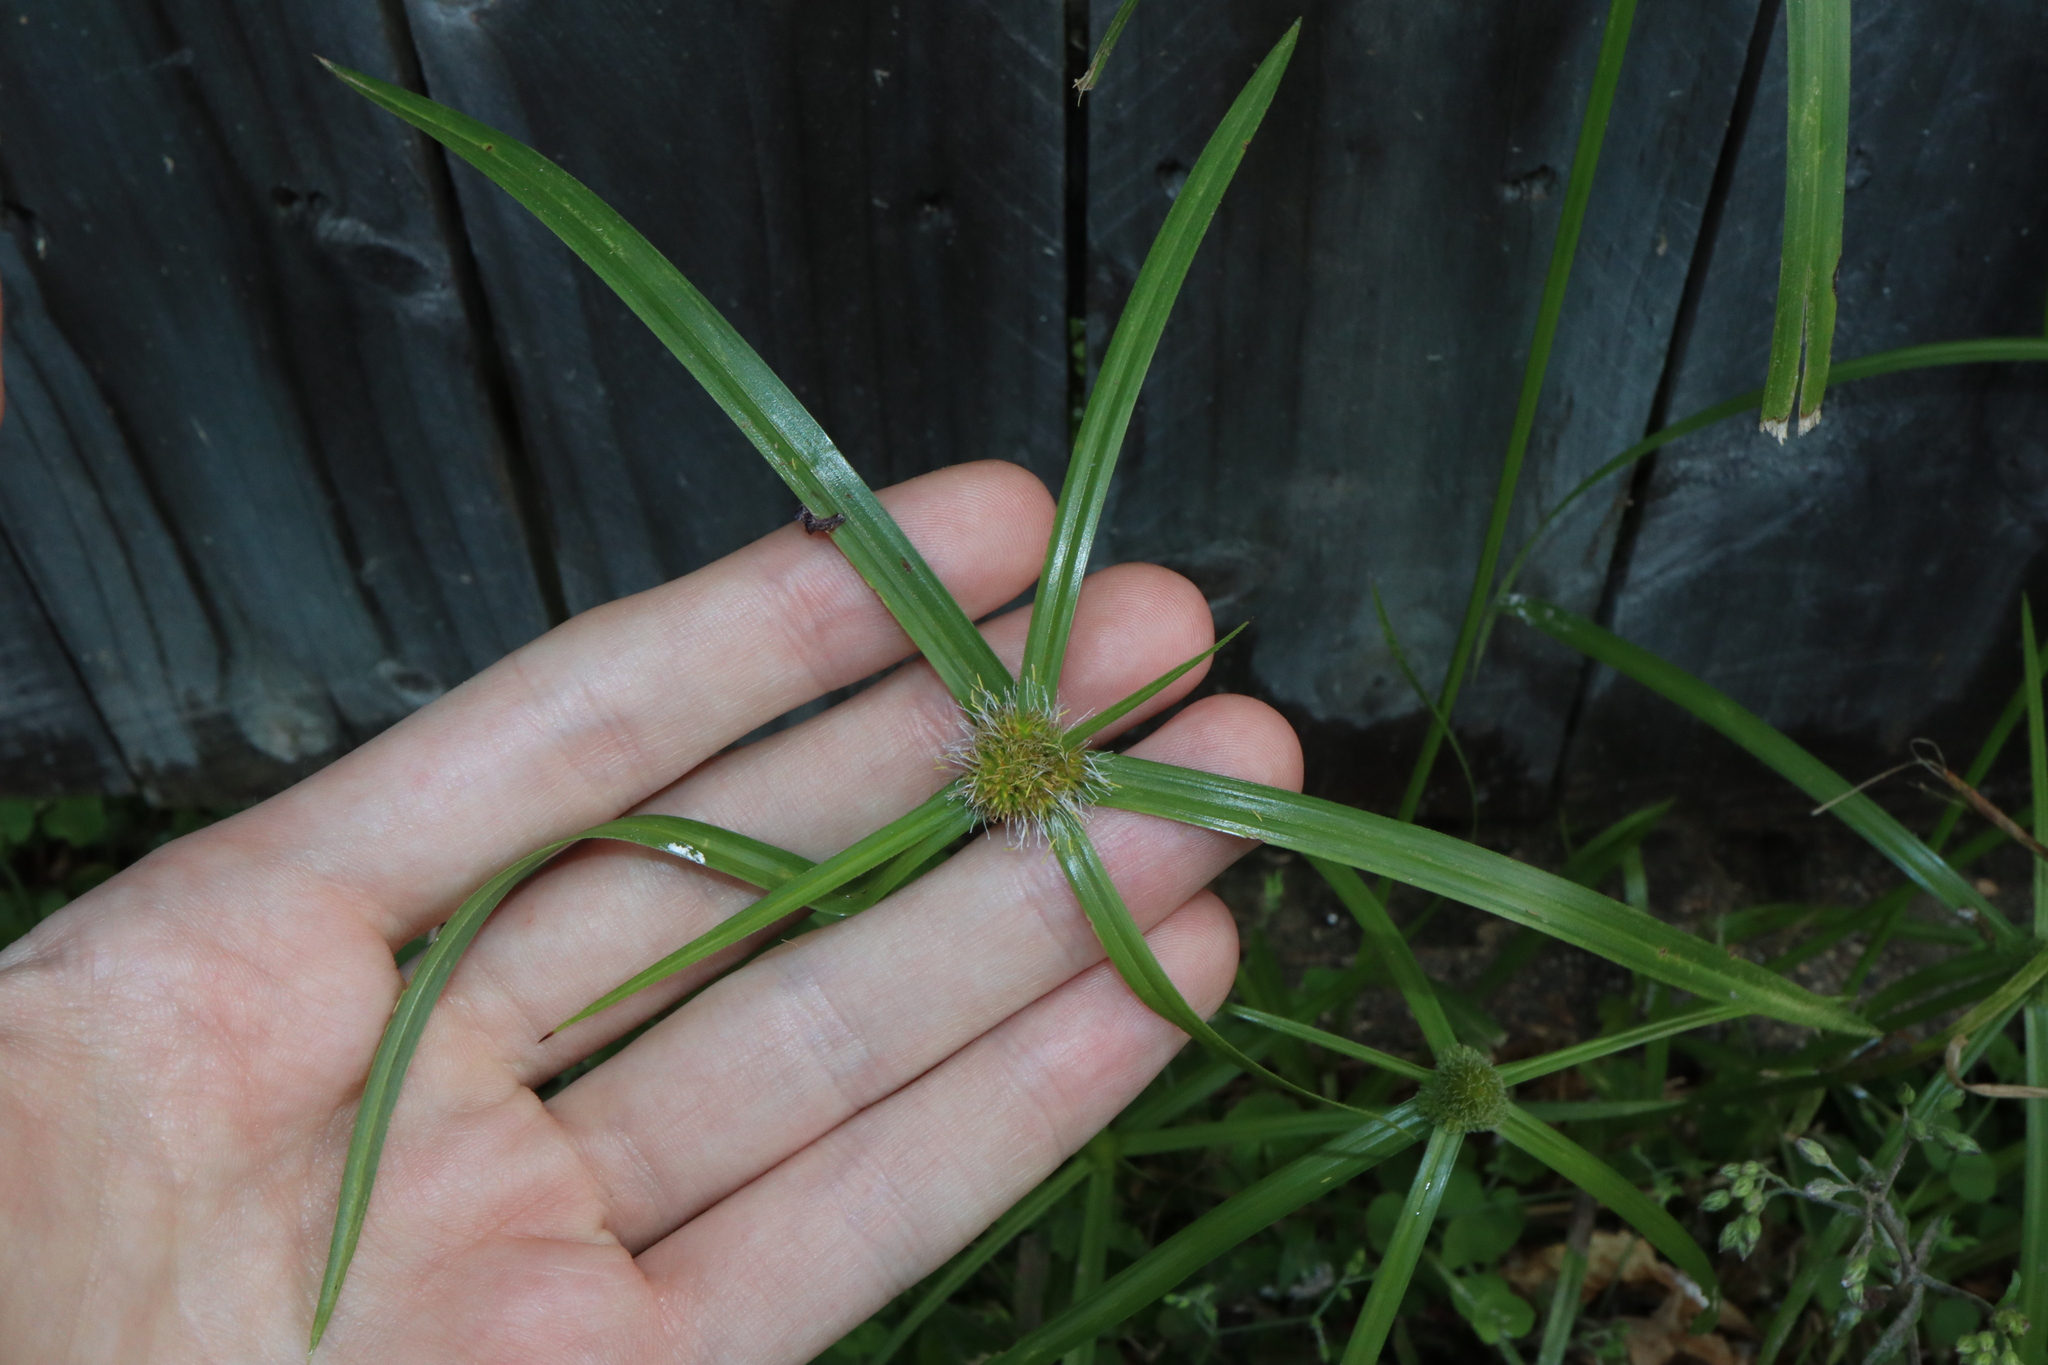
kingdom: Plantae
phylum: Tracheophyta
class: Liliopsida
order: Poales
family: Cyperaceae
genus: Cyperus
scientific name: Cyperus aromaticus
